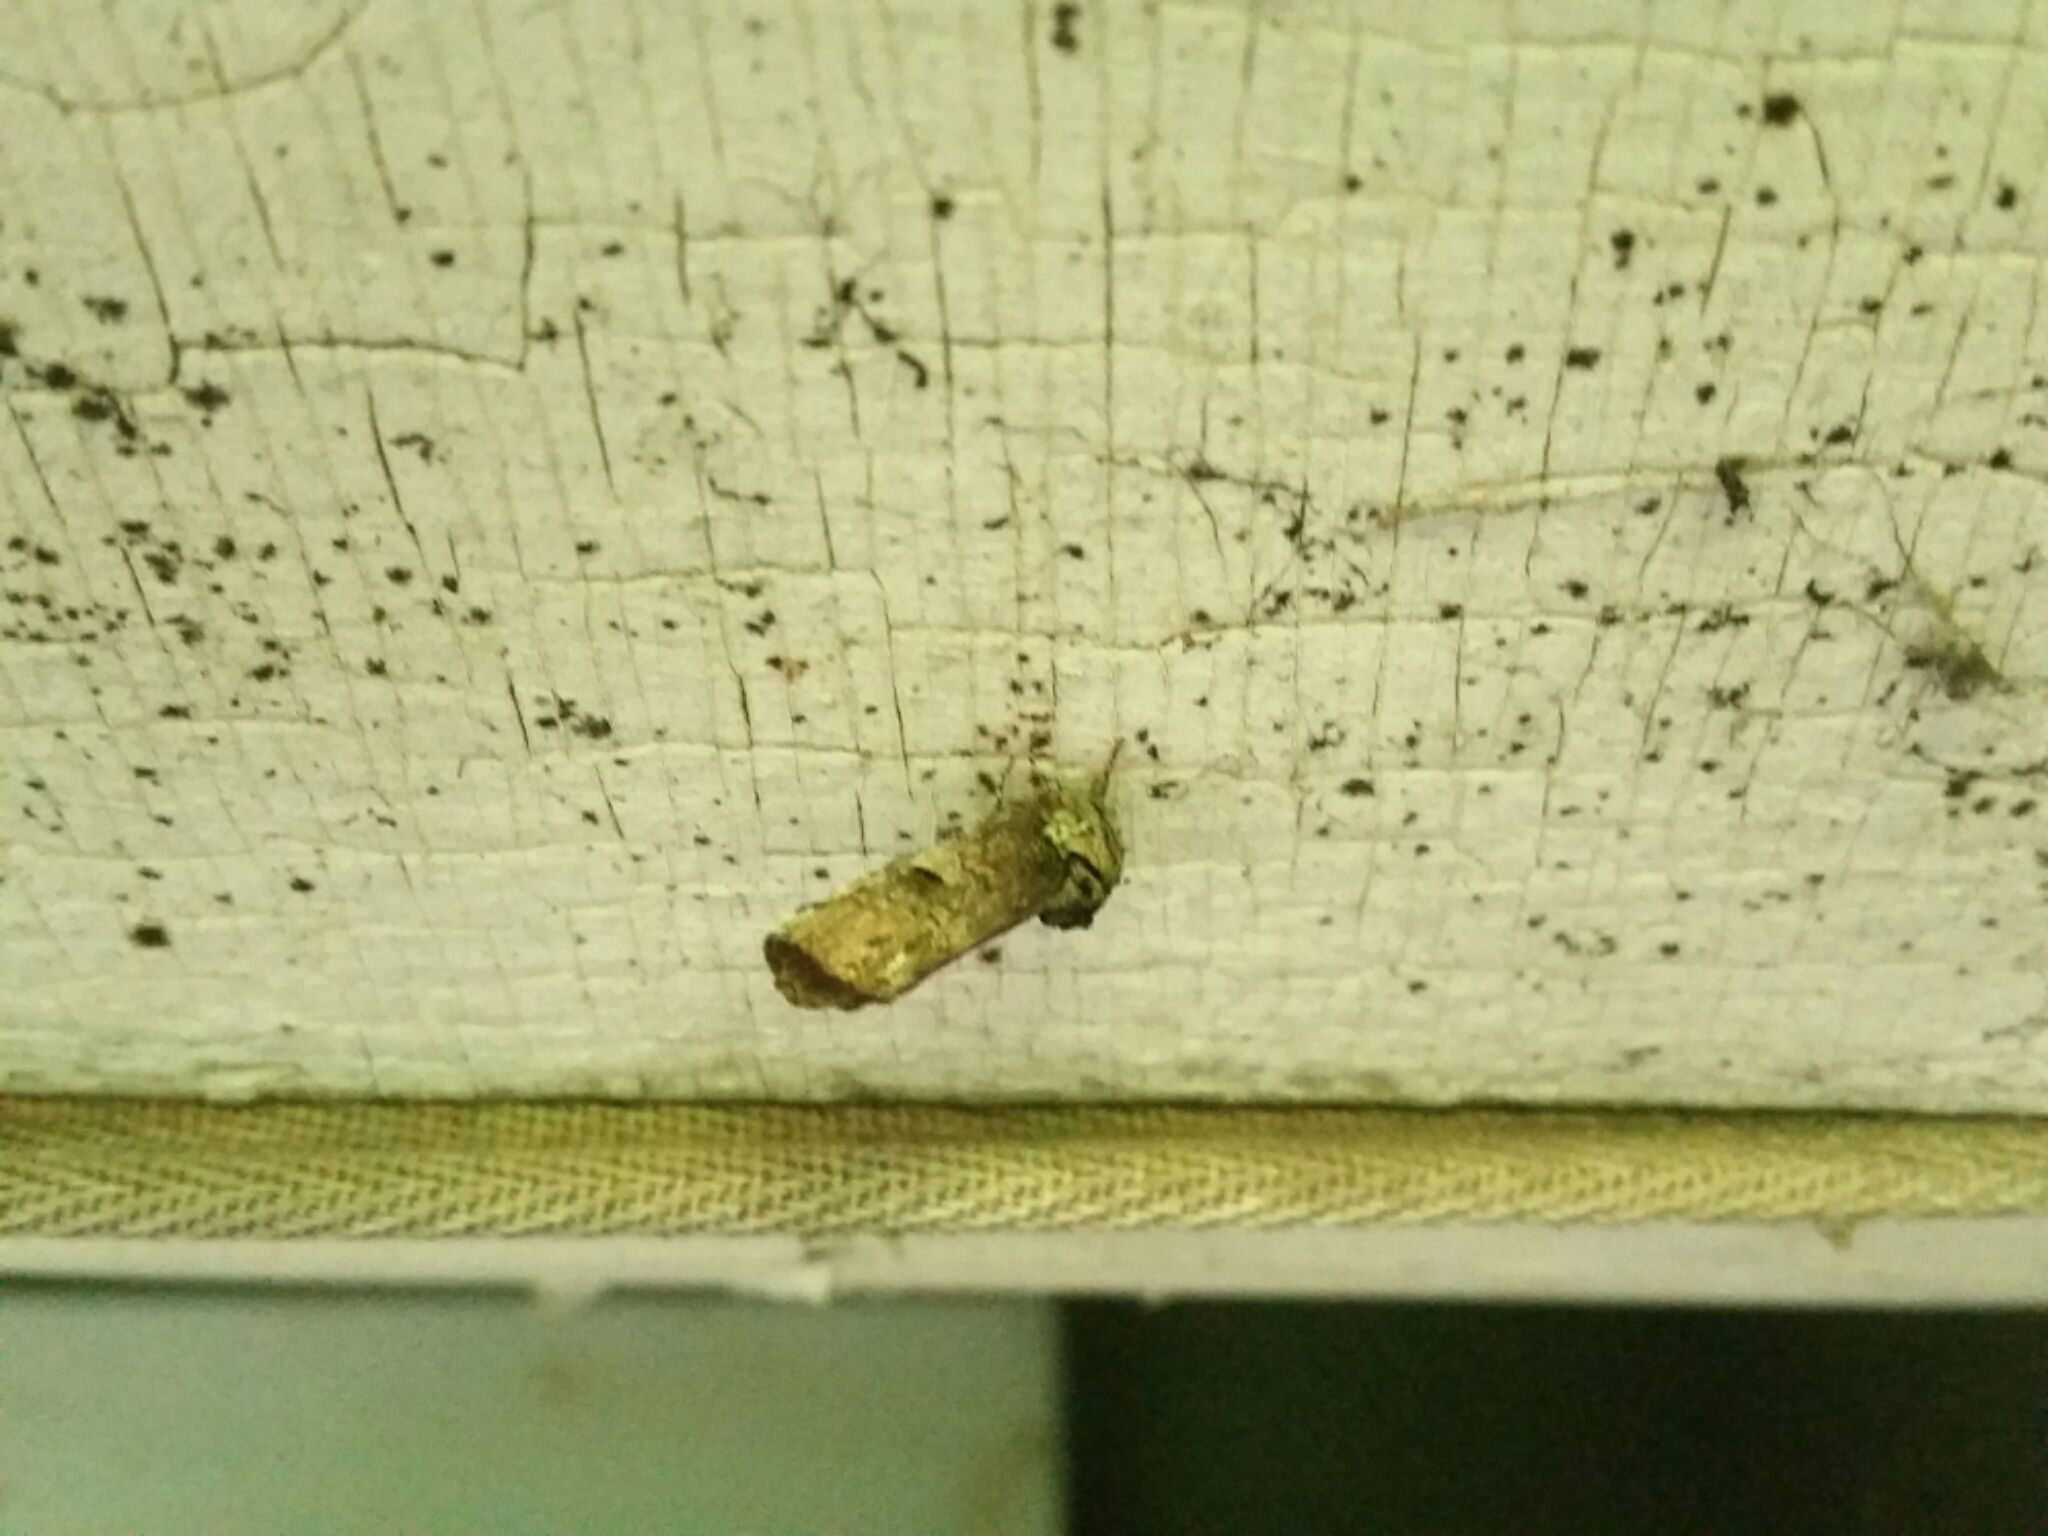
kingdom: Animalia
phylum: Arthropoda
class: Insecta
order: Lepidoptera
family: Notodontidae
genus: Schizura
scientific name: Schizura
